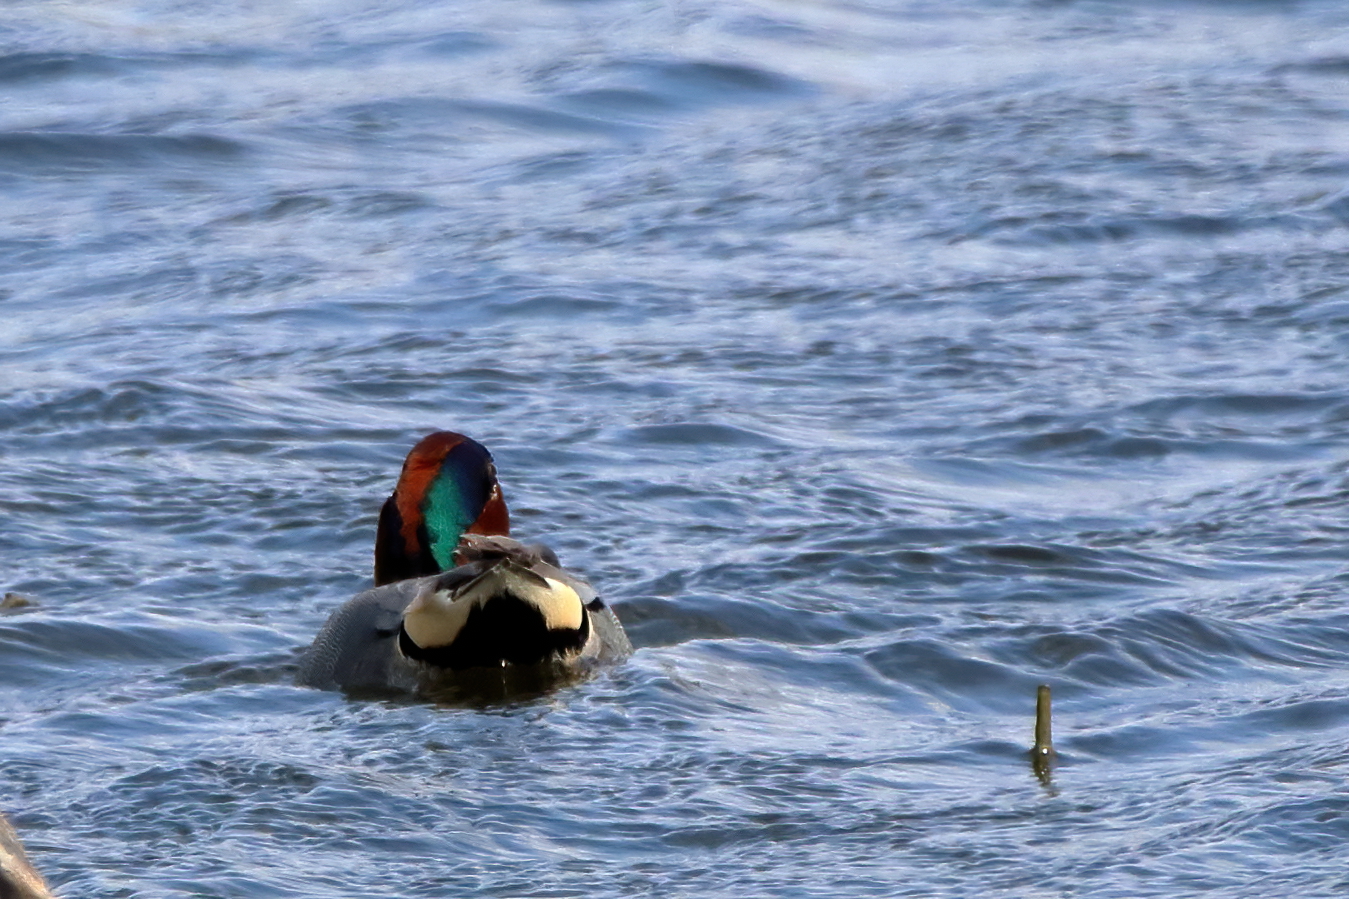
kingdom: Animalia
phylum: Chordata
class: Aves
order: Anseriformes
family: Anatidae
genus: Anas
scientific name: Anas crecca
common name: Eurasian teal
